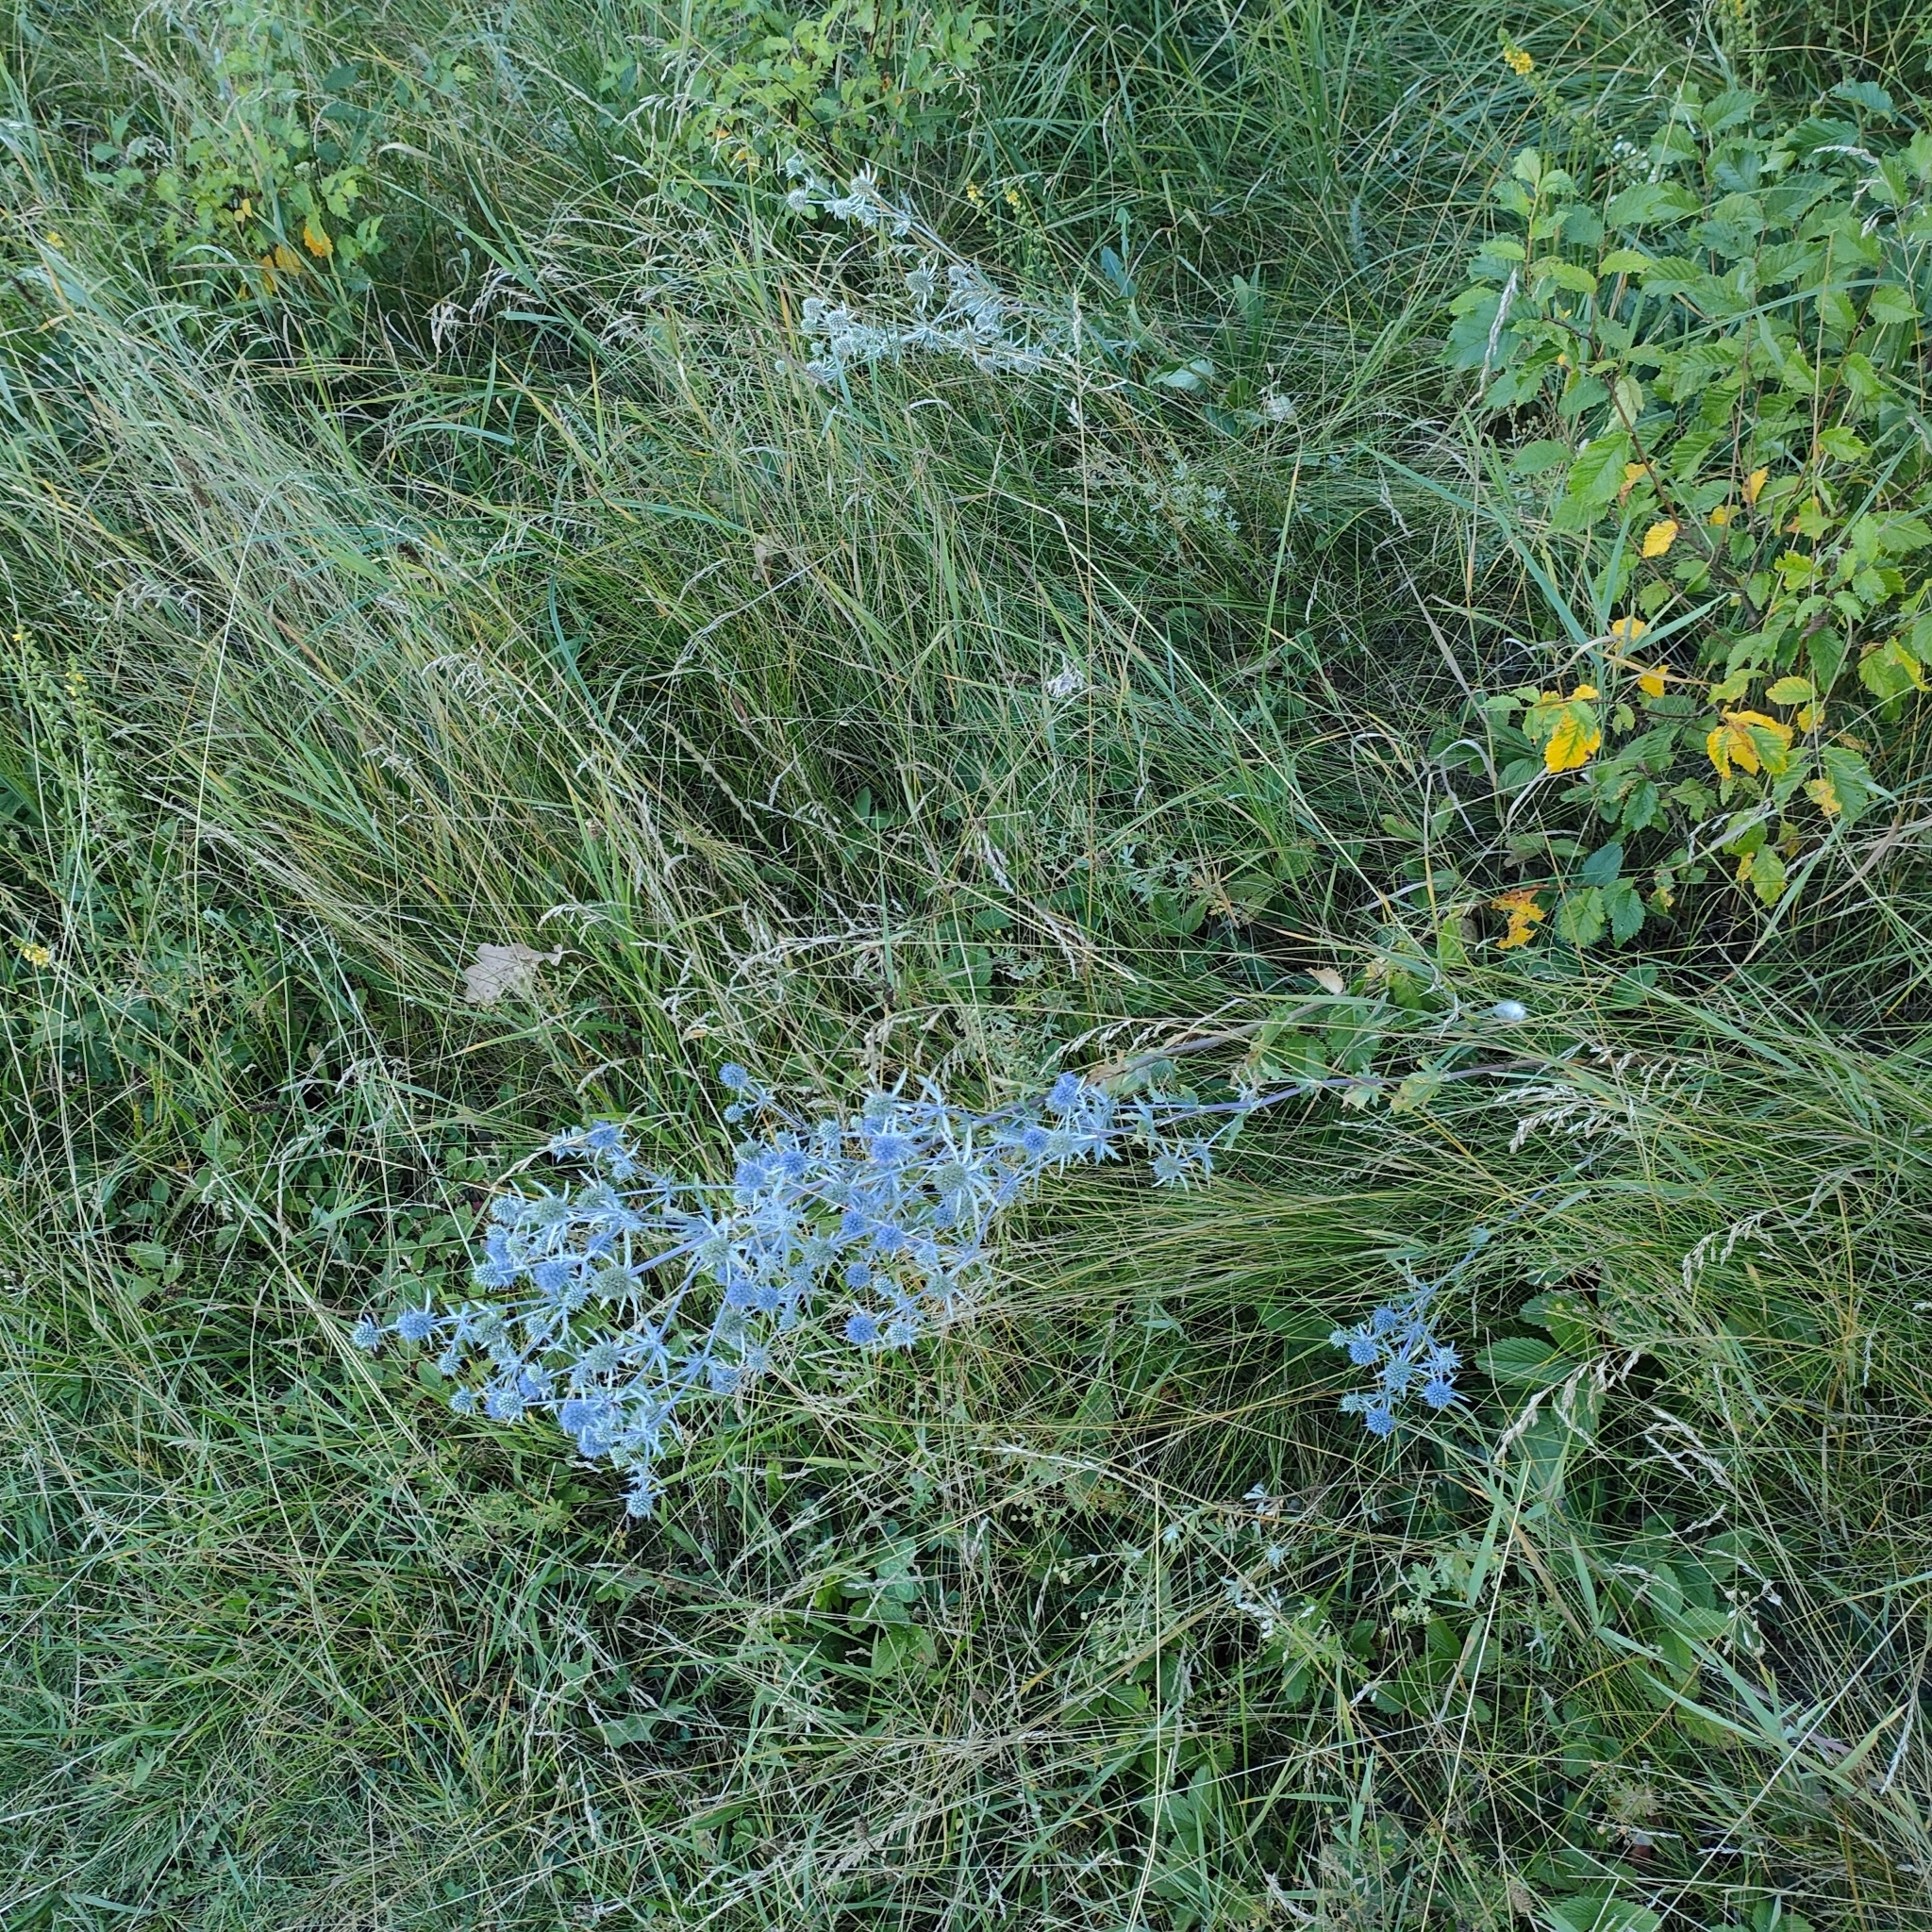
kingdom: Plantae
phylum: Tracheophyta
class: Magnoliopsida
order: Apiales
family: Apiaceae
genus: Eryngium
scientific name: Eryngium planum
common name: Blue eryngo
